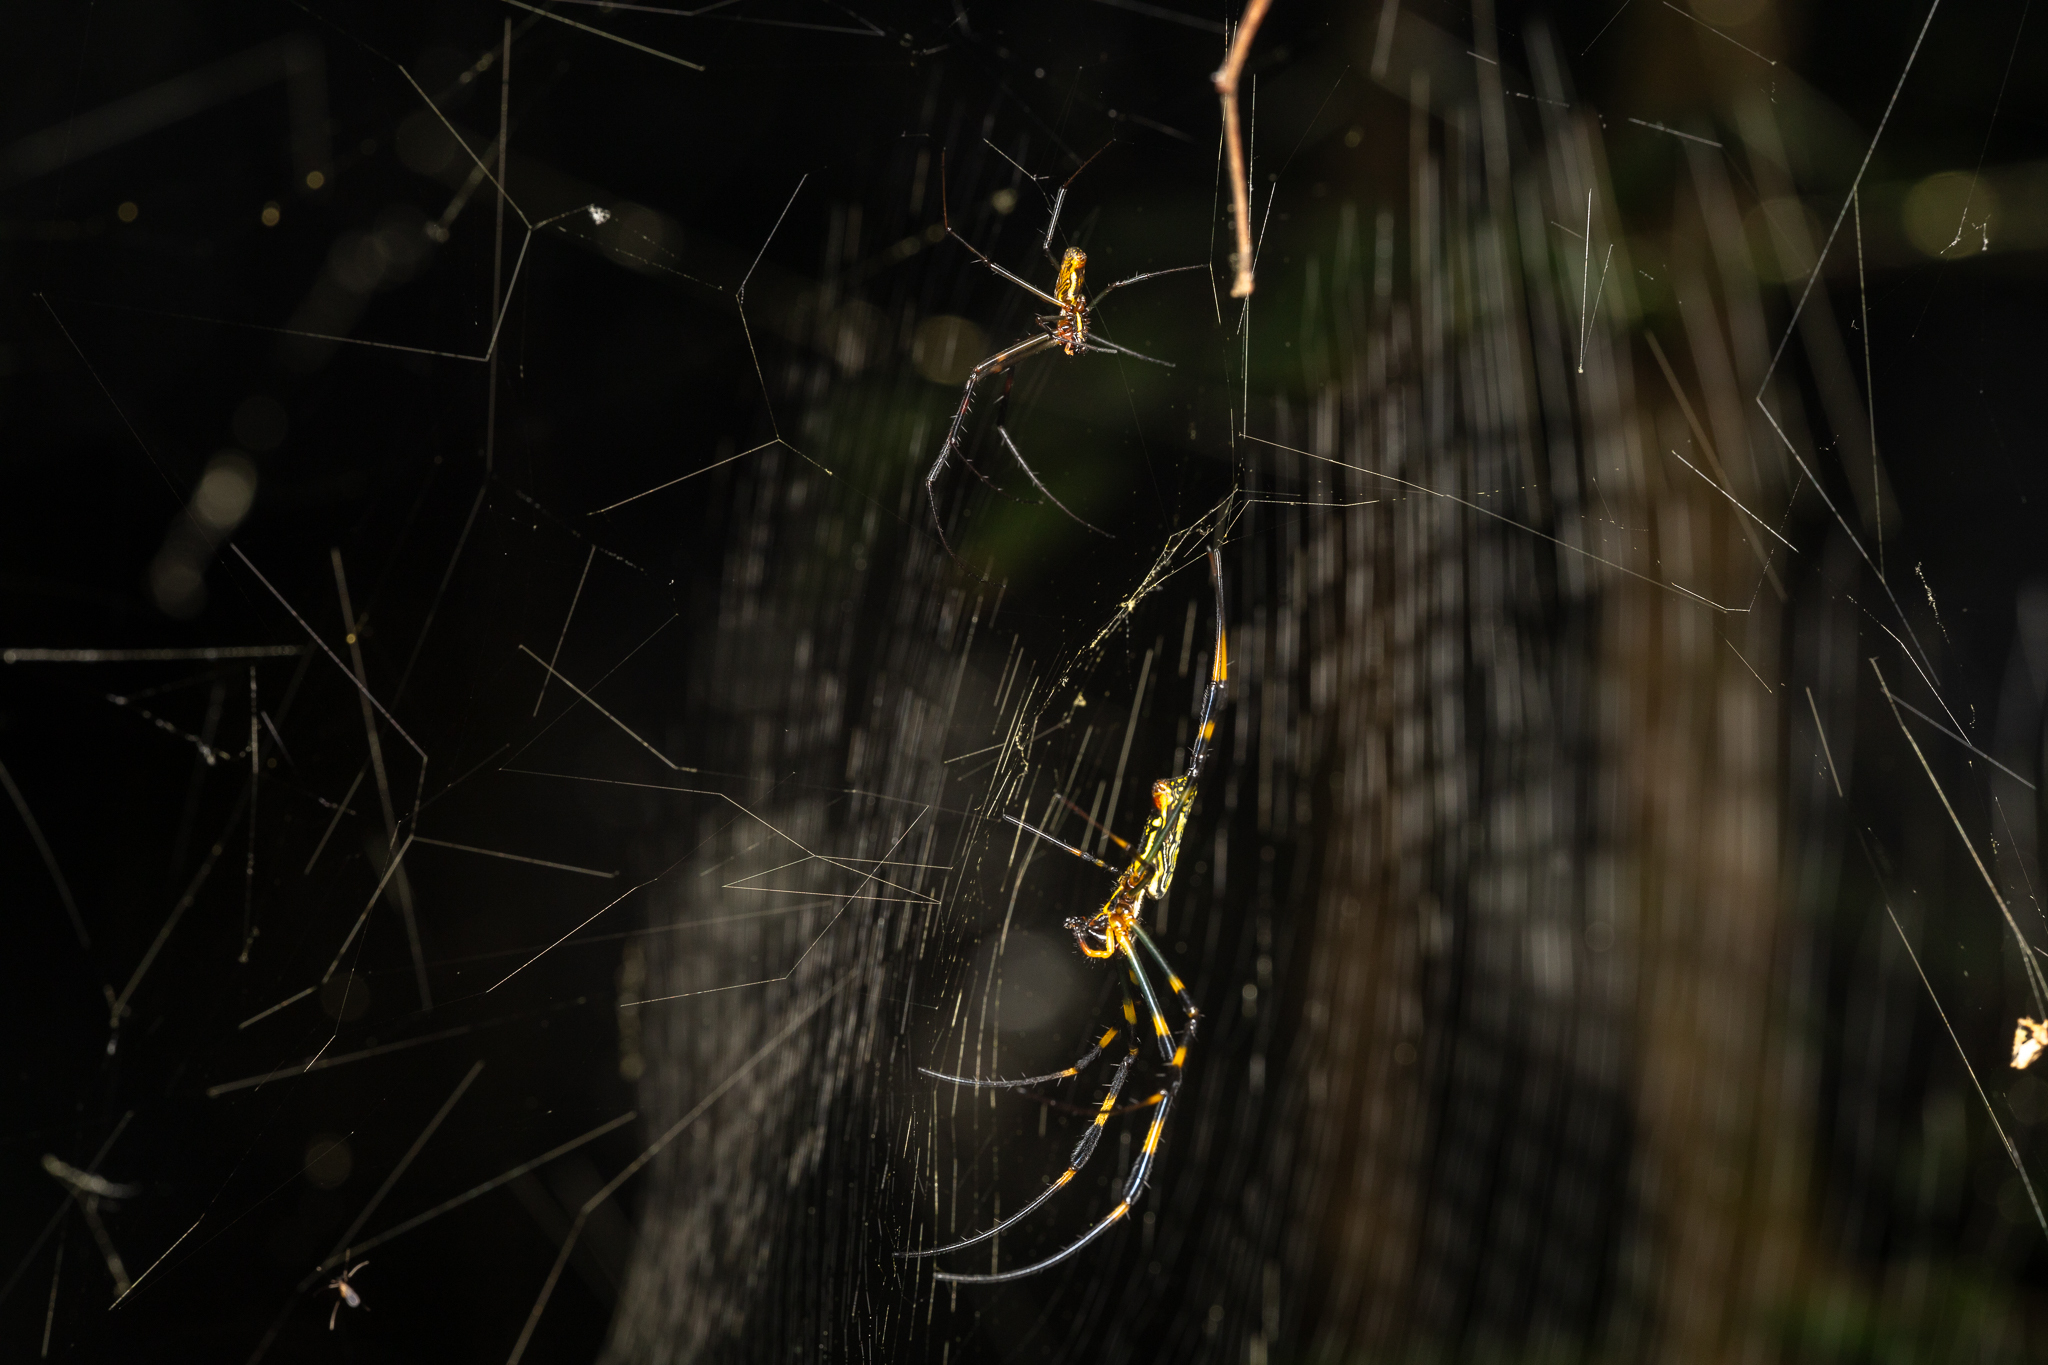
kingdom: Animalia
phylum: Arthropoda
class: Arachnida
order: Araneae
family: Araneidae
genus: Trichonephila
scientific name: Trichonephila clavata
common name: Jorō spider
